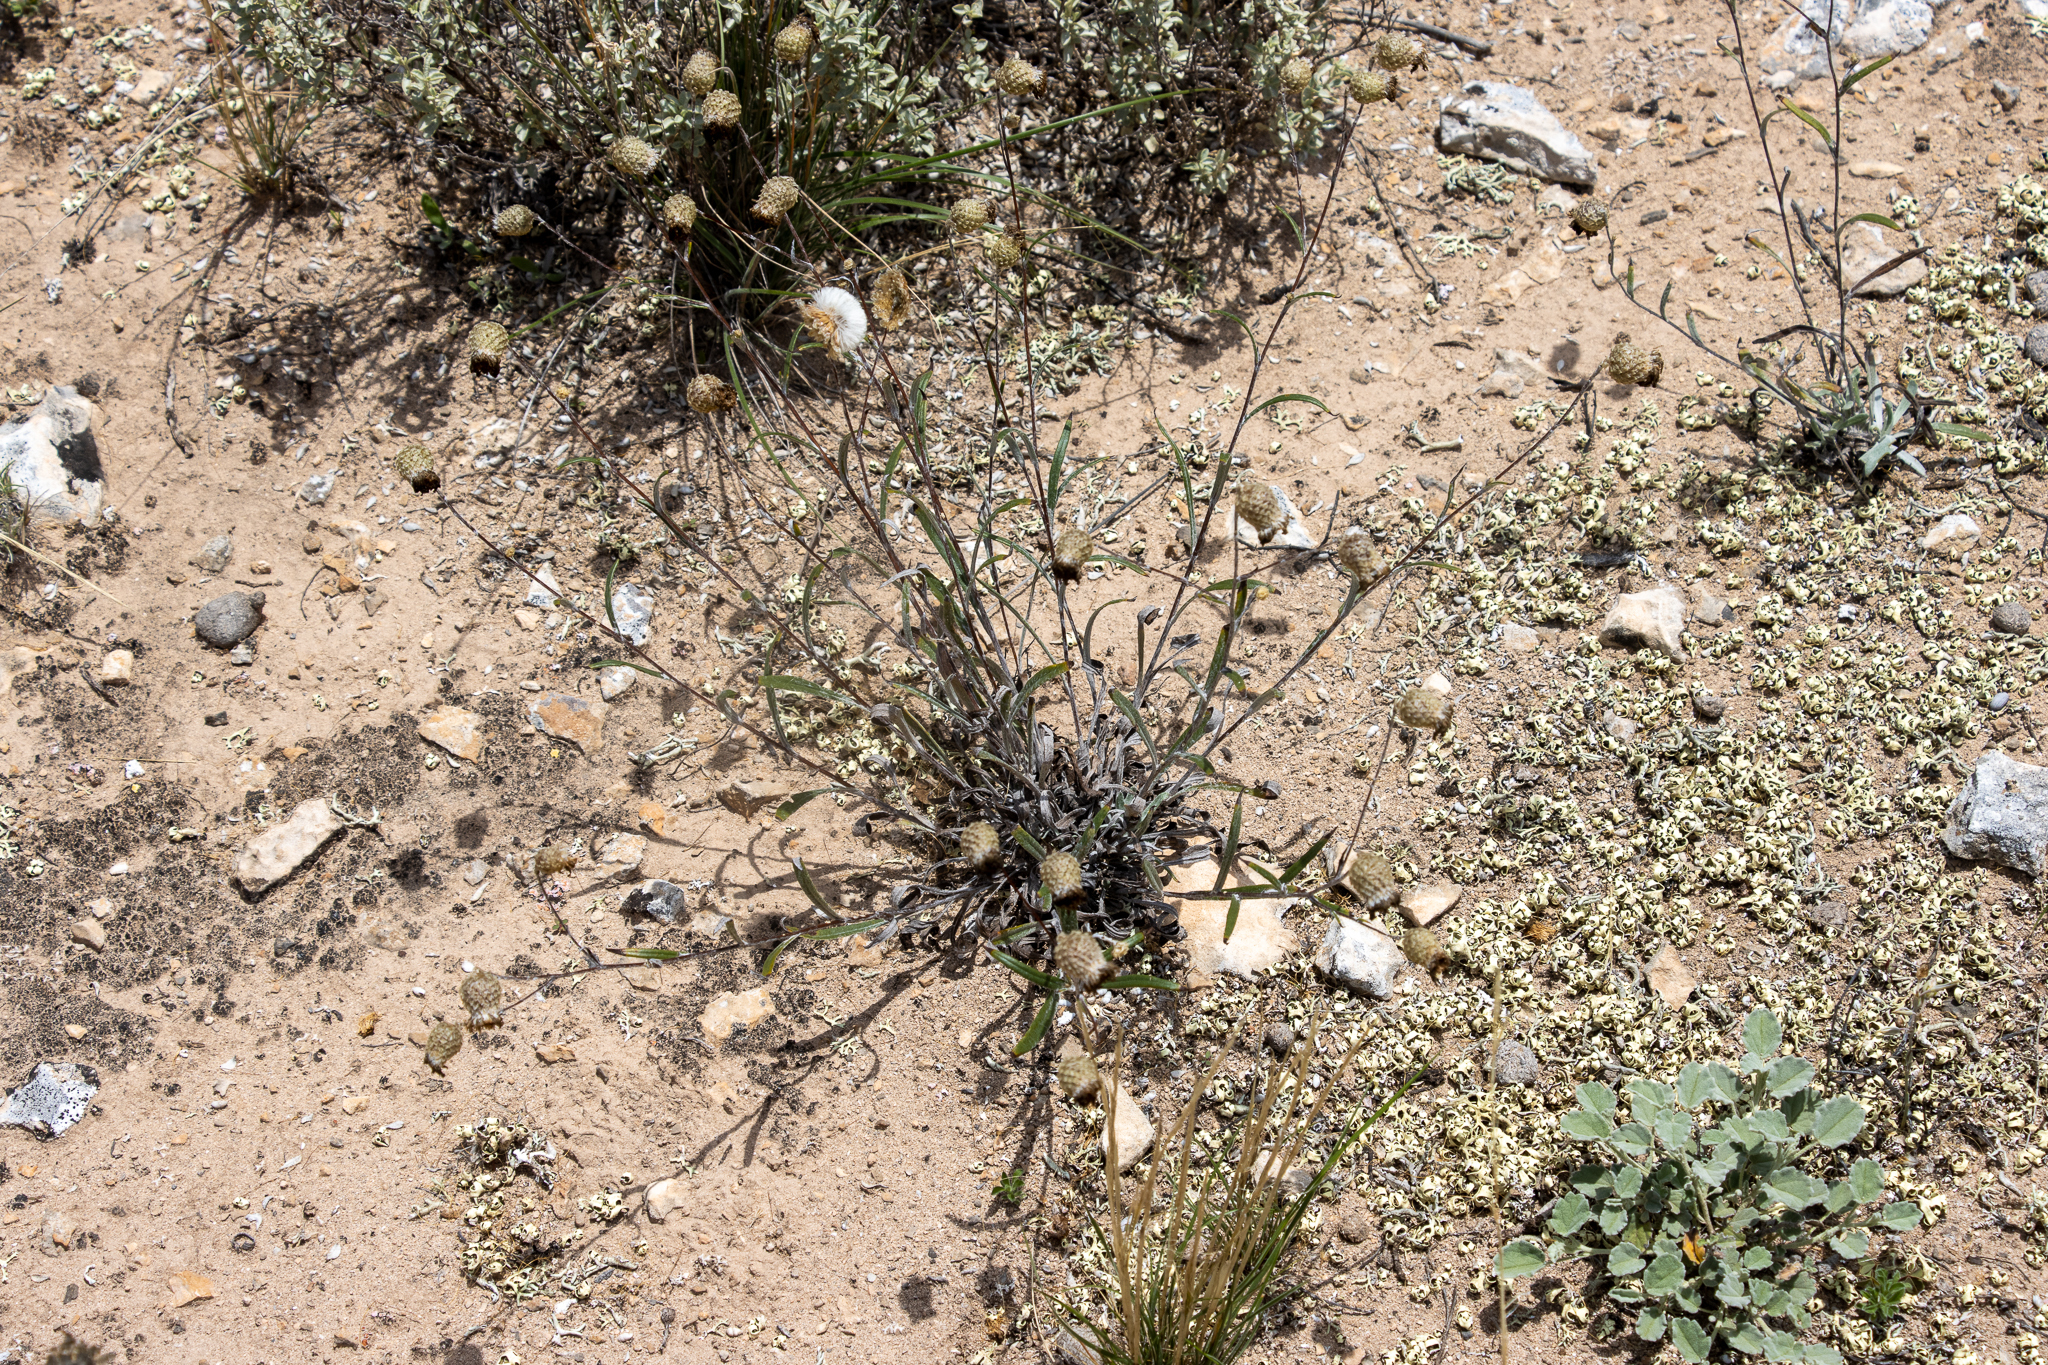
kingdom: Plantae
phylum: Tracheophyta
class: Magnoliopsida
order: Asterales
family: Asteraceae
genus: Podolepis
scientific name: Podolepis rugata
